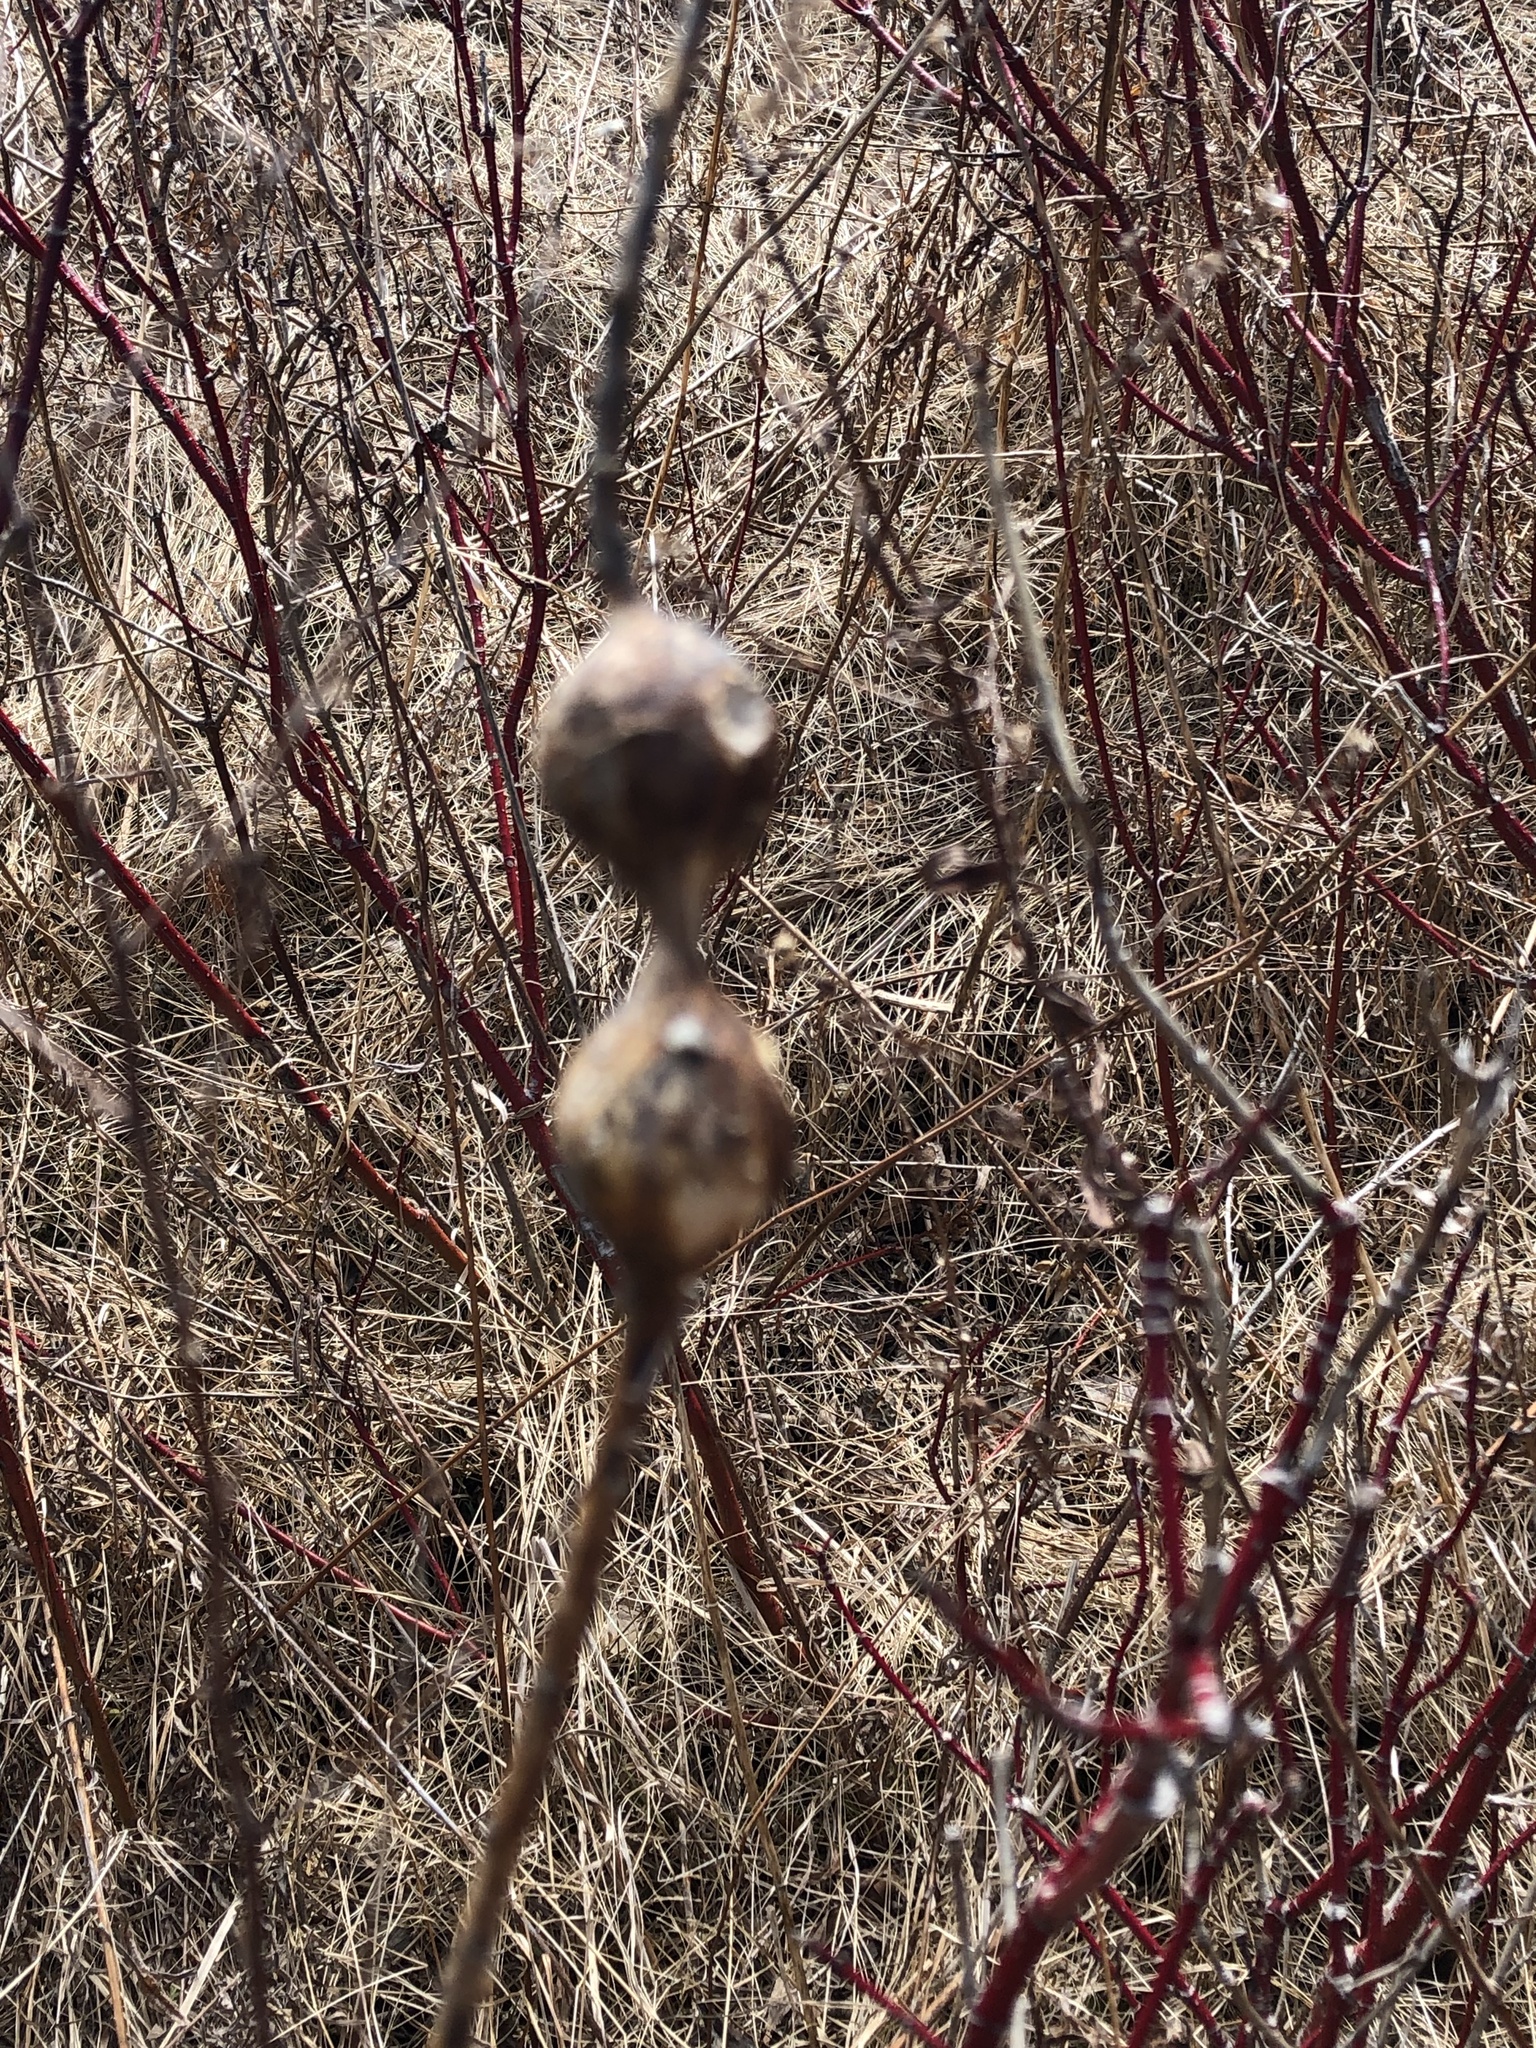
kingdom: Animalia
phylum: Arthropoda
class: Insecta
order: Diptera
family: Tephritidae
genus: Eurosta
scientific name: Eurosta solidaginis
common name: Goldenrod gall fly
